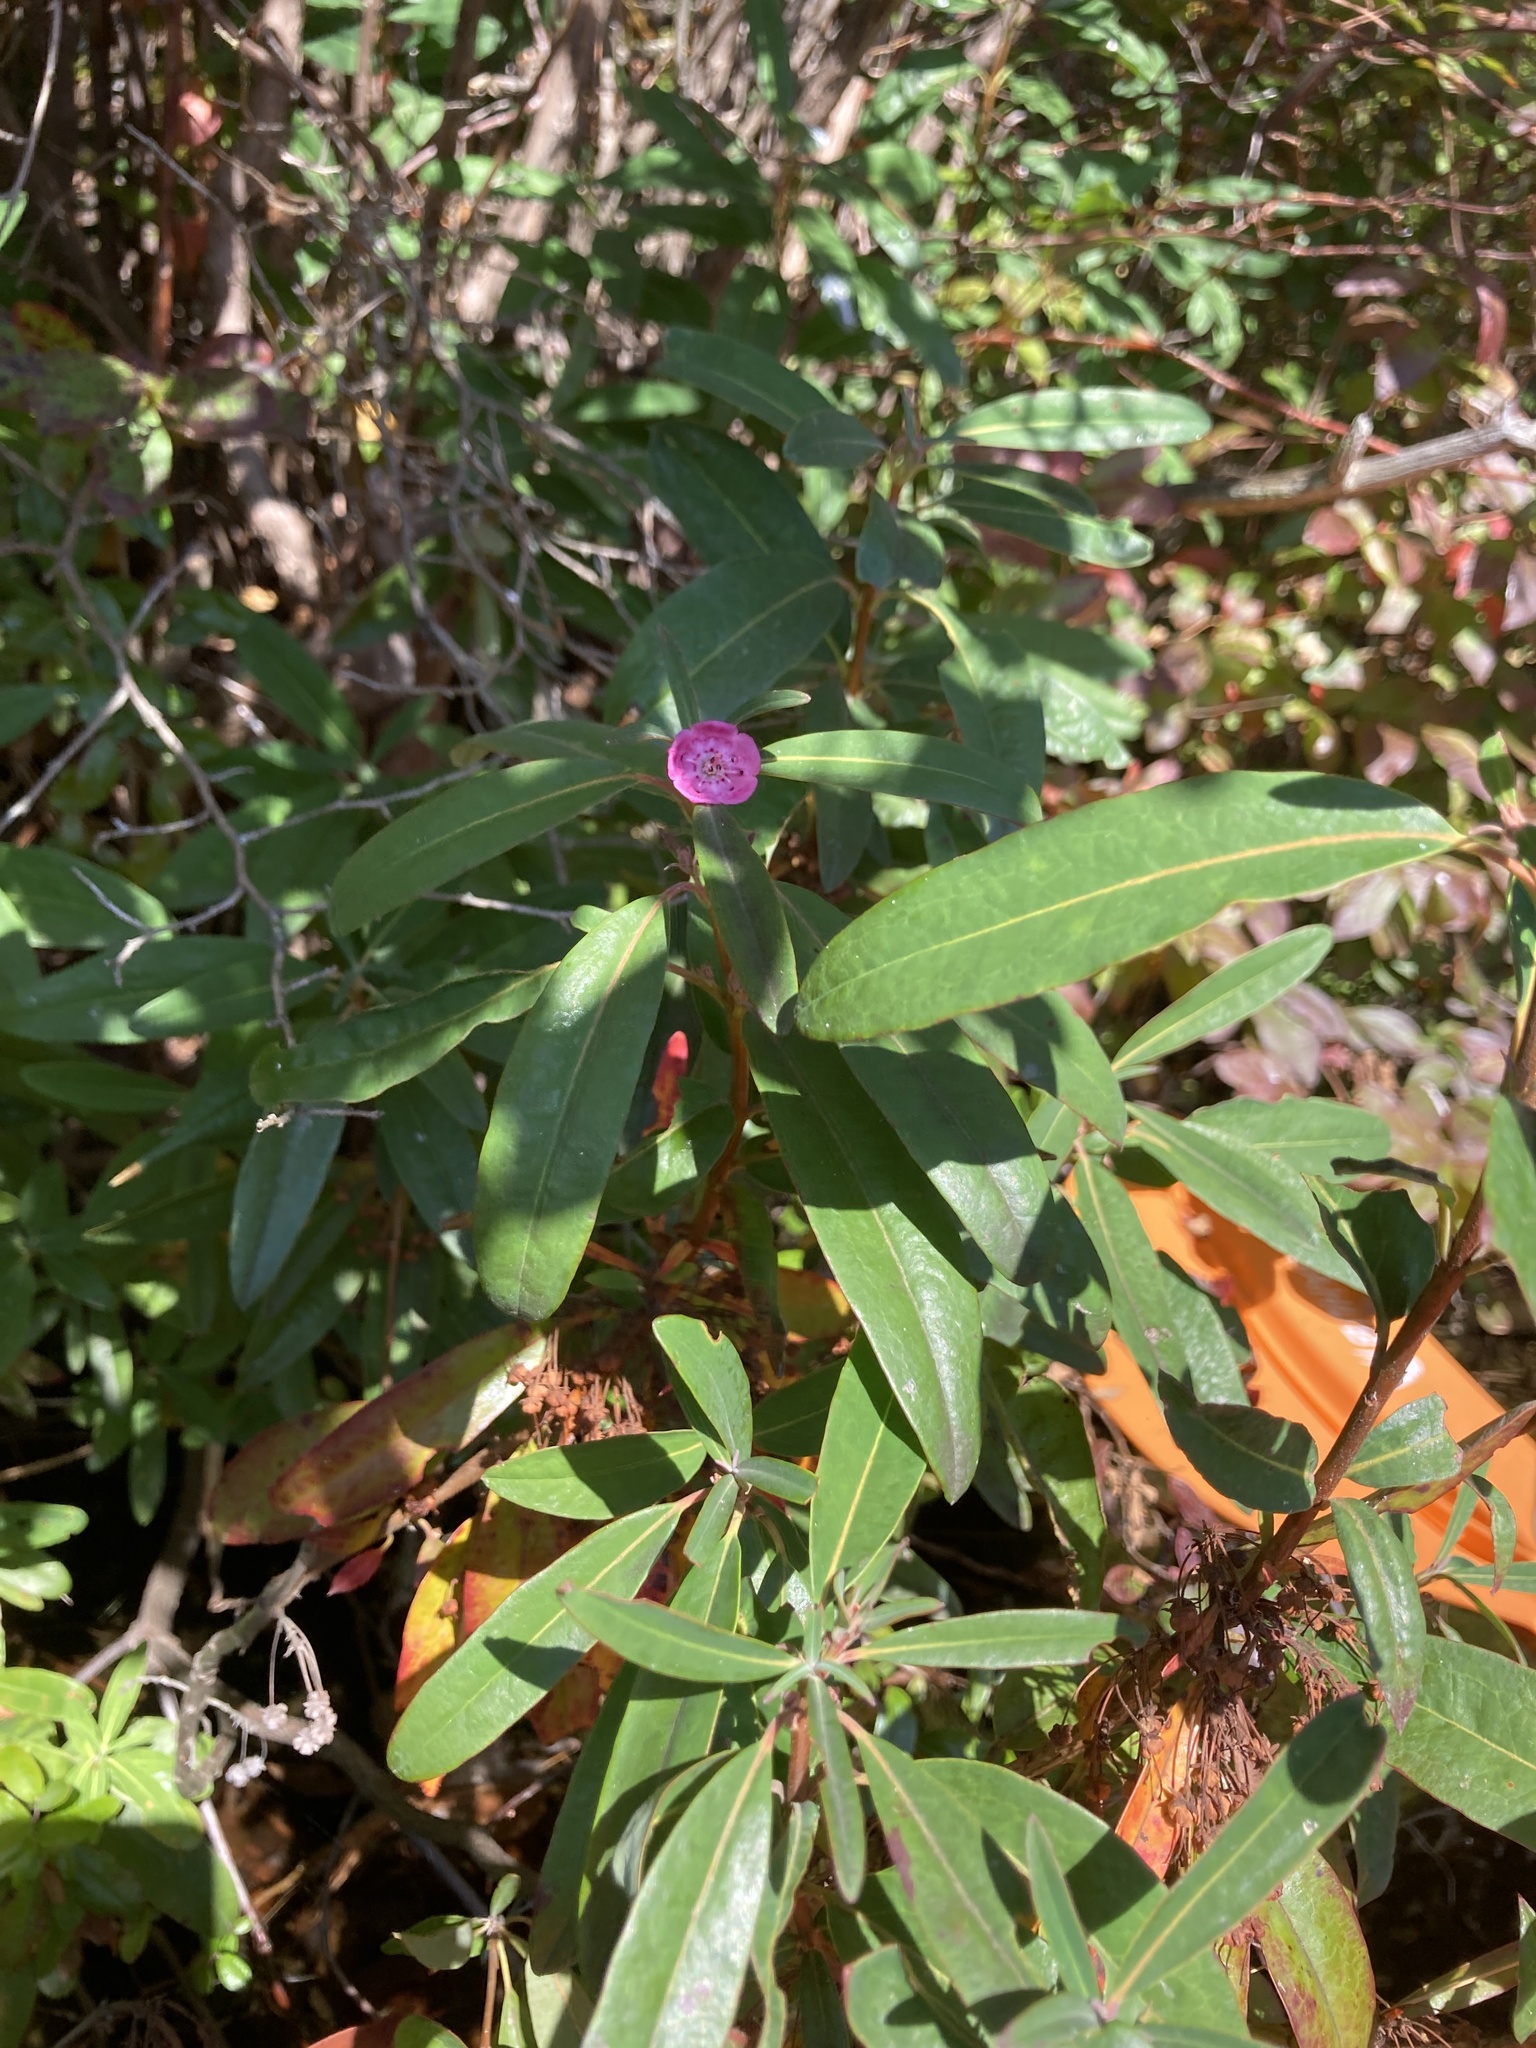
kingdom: Plantae
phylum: Tracheophyta
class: Magnoliopsida
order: Ericales
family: Ericaceae
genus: Kalmia
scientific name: Kalmia angustifolia
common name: Sheep-laurel
